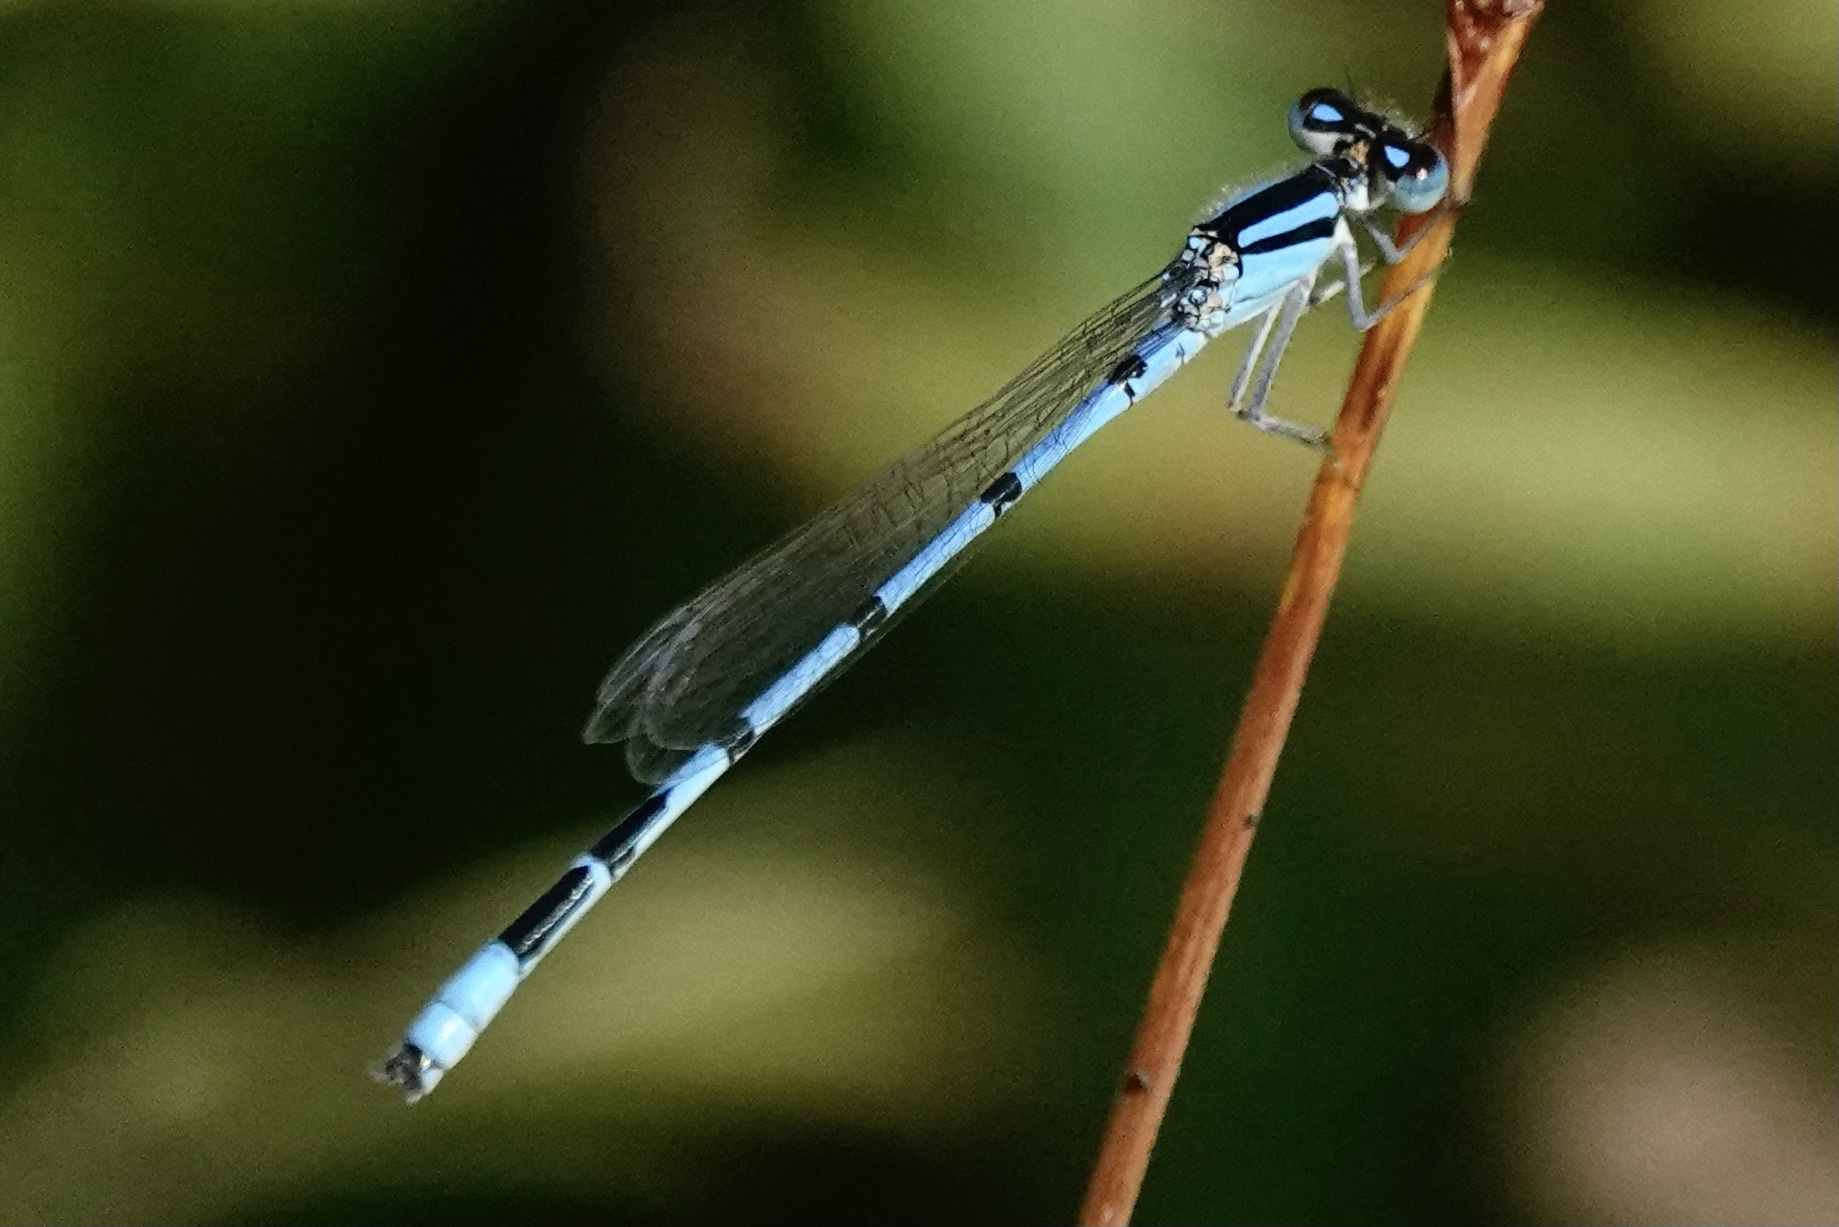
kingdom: Animalia
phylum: Arthropoda
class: Insecta
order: Odonata
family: Coenagrionidae
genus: Enallagma
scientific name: Enallagma civile
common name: Damselfly
